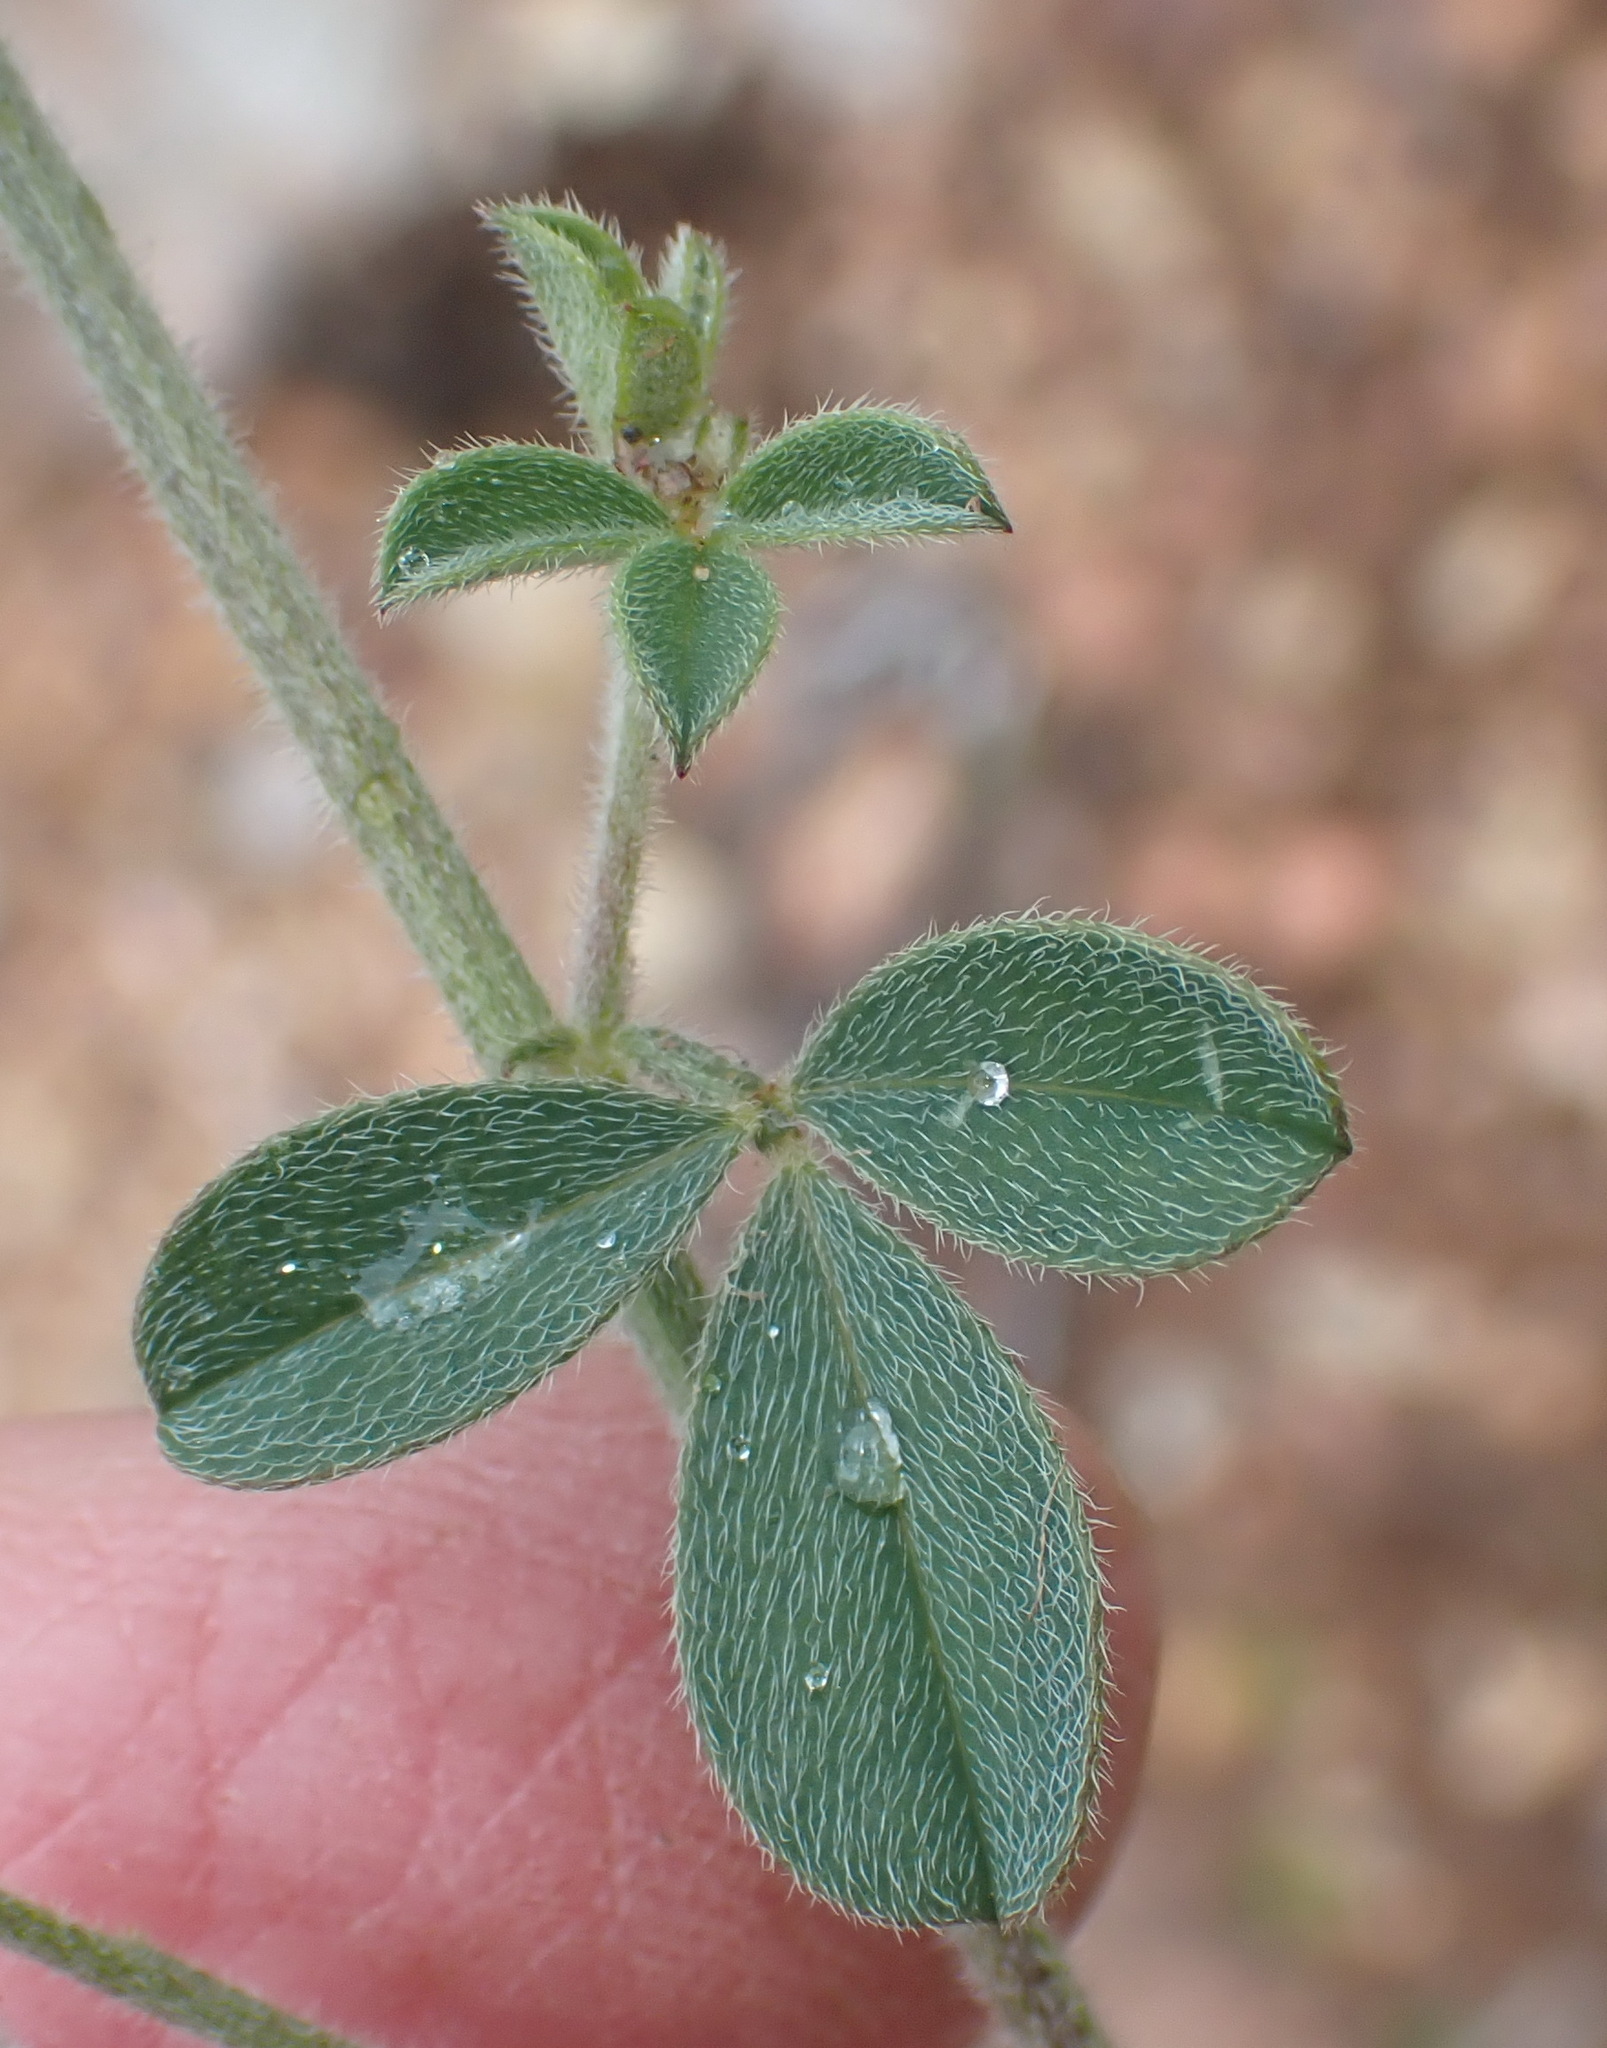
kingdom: Plantae
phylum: Tracheophyta
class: Magnoliopsida
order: Fabales
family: Fabaceae
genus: Indigofera
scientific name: Indigofera priorii
